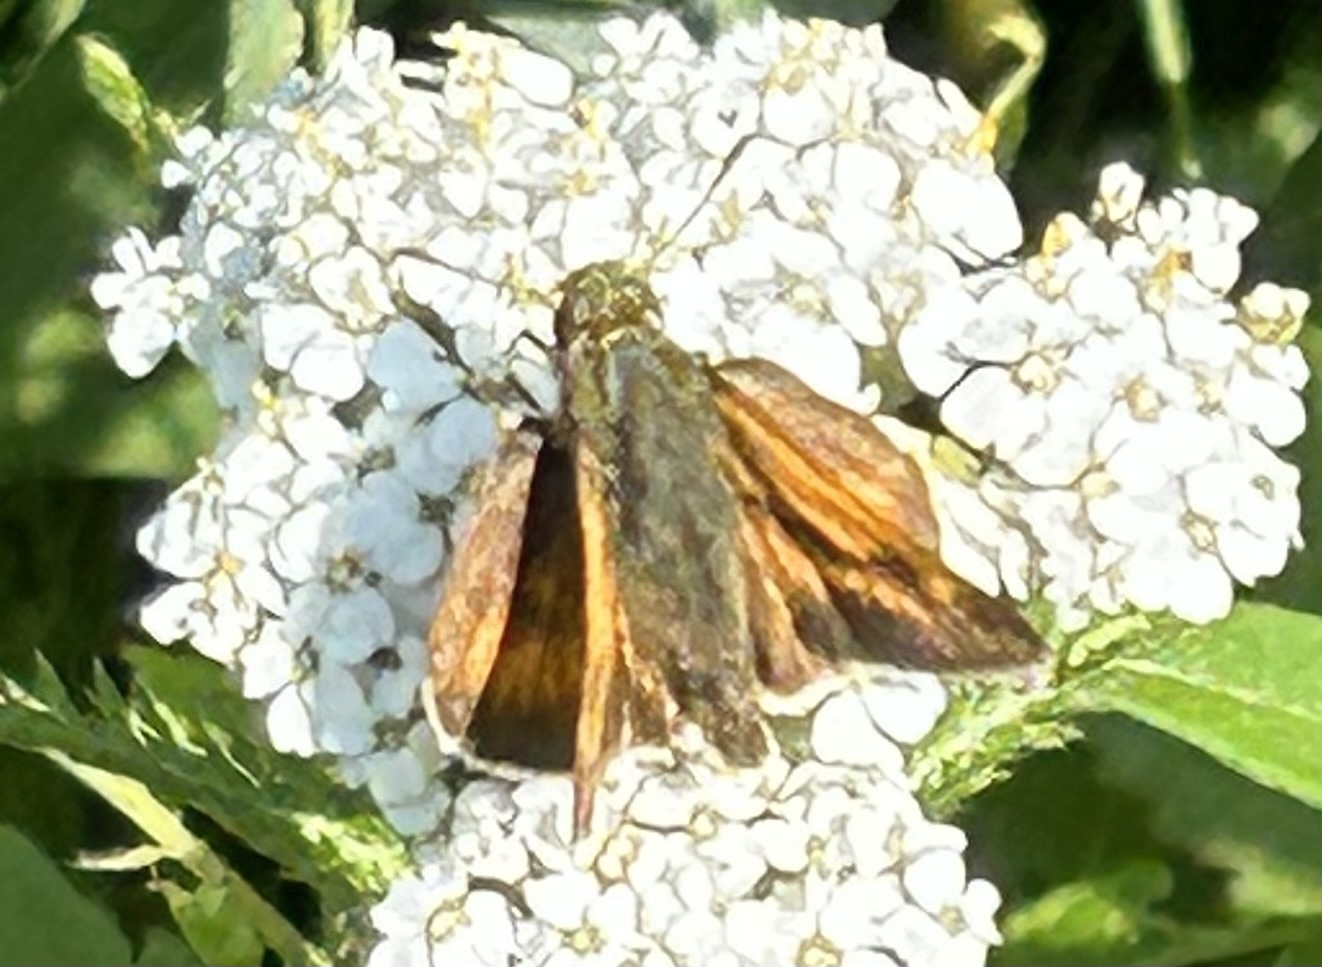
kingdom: Animalia
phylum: Arthropoda
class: Insecta
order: Lepidoptera
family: Hesperiidae
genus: Polites
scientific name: Polites mystic
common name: Long dash
